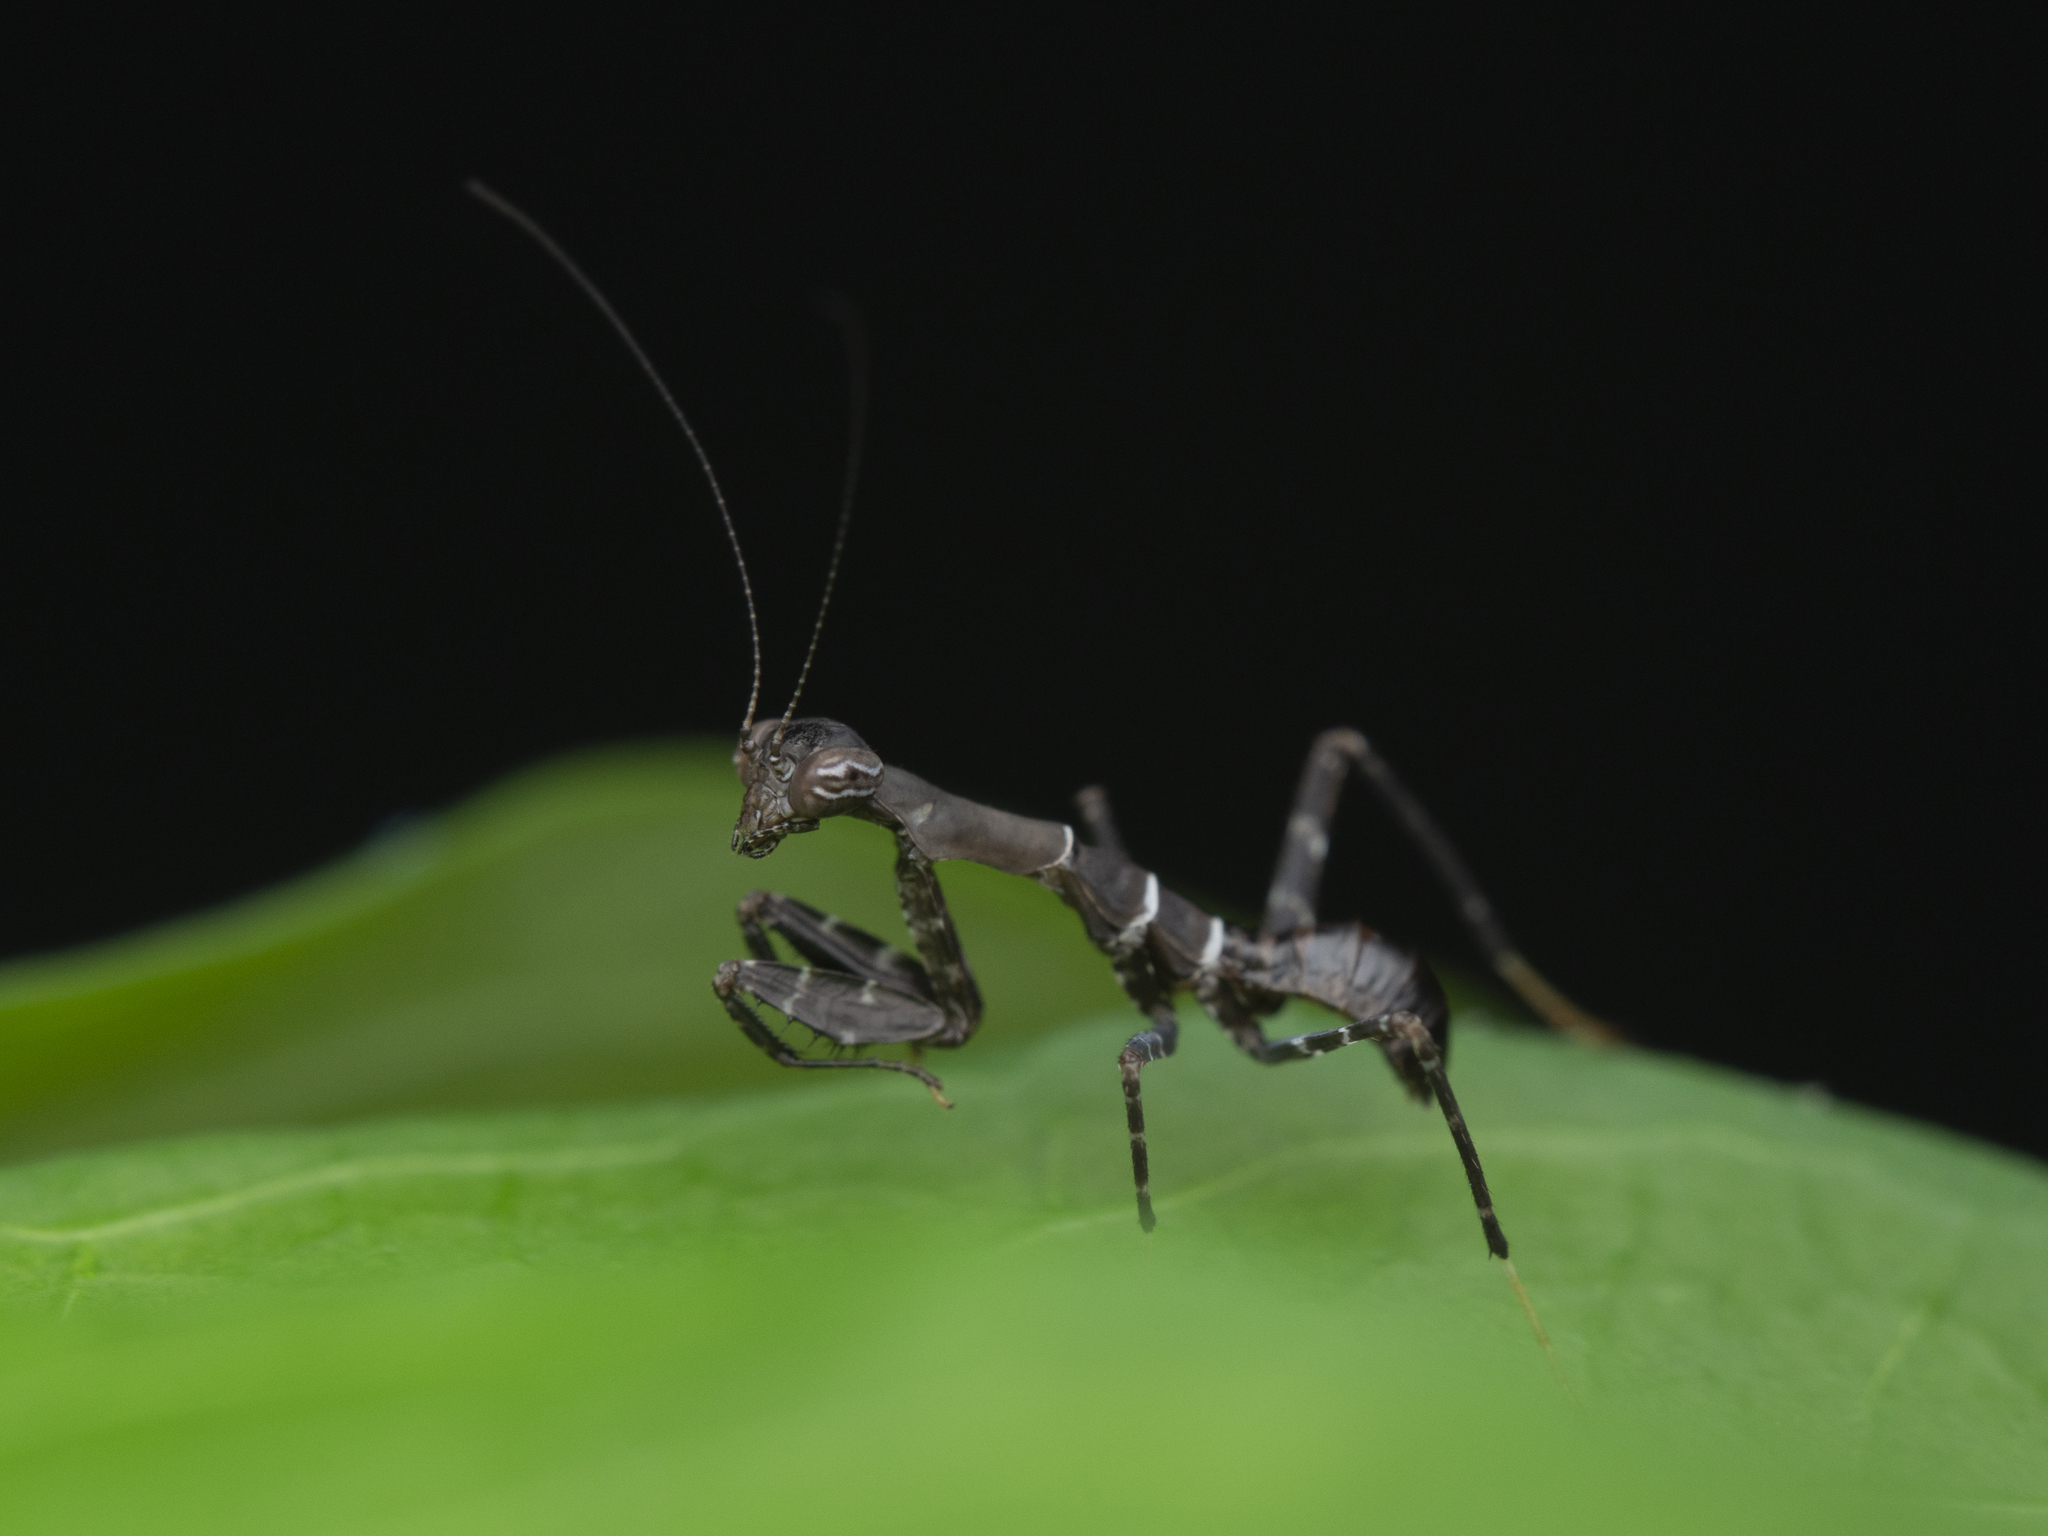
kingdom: Animalia
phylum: Arthropoda
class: Insecta
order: Mantodea
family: Hymenopodidae
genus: Ambivia
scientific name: Ambivia
